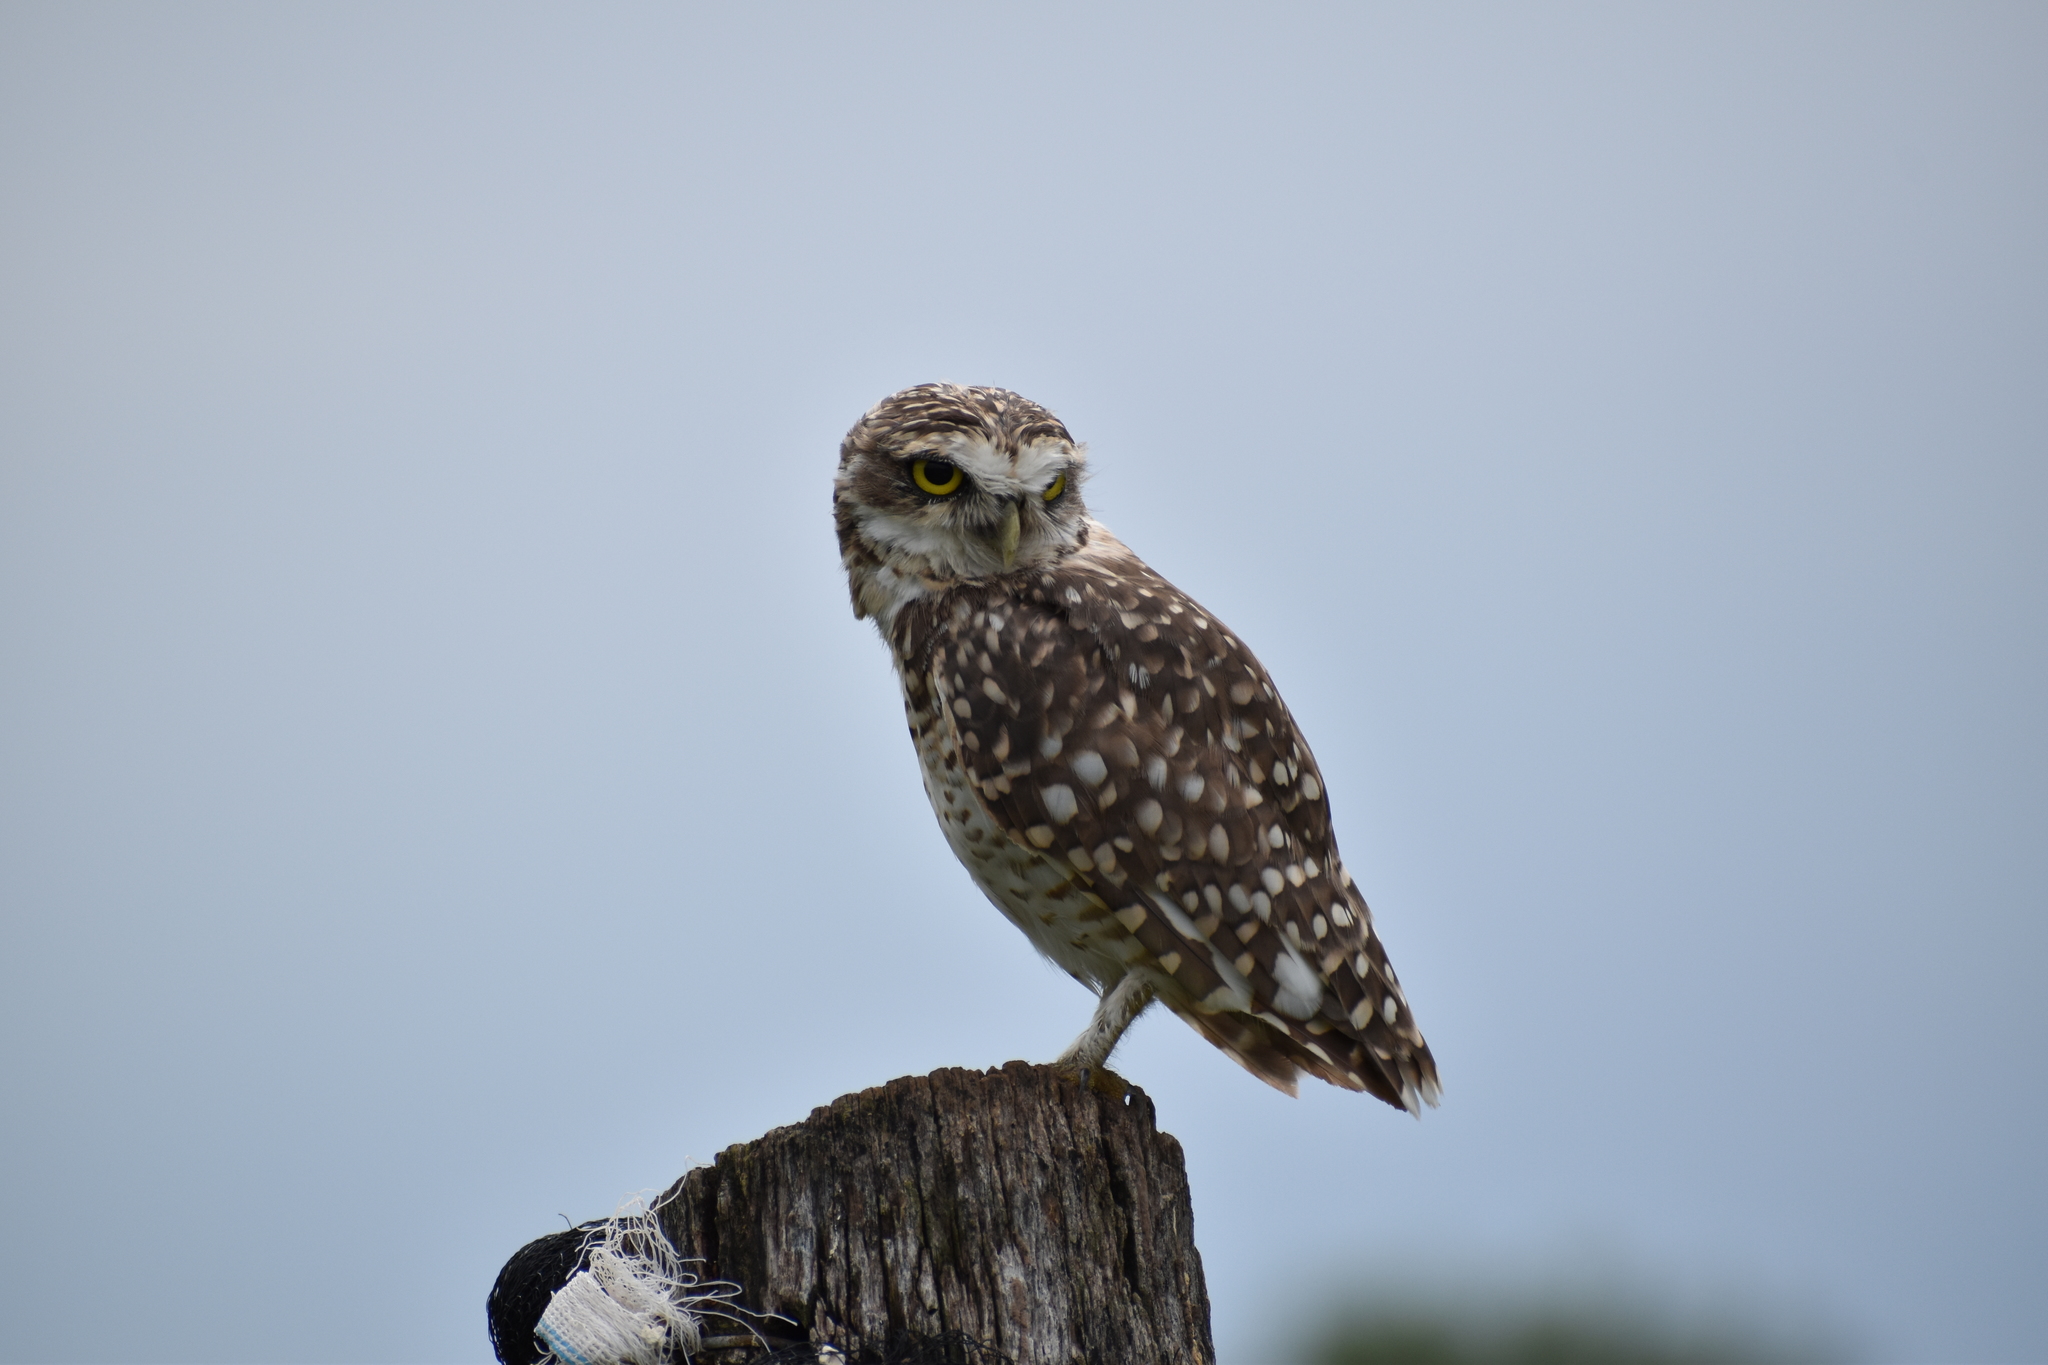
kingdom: Animalia
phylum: Chordata
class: Aves
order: Strigiformes
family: Strigidae
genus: Athene
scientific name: Athene cunicularia
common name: Burrowing owl
